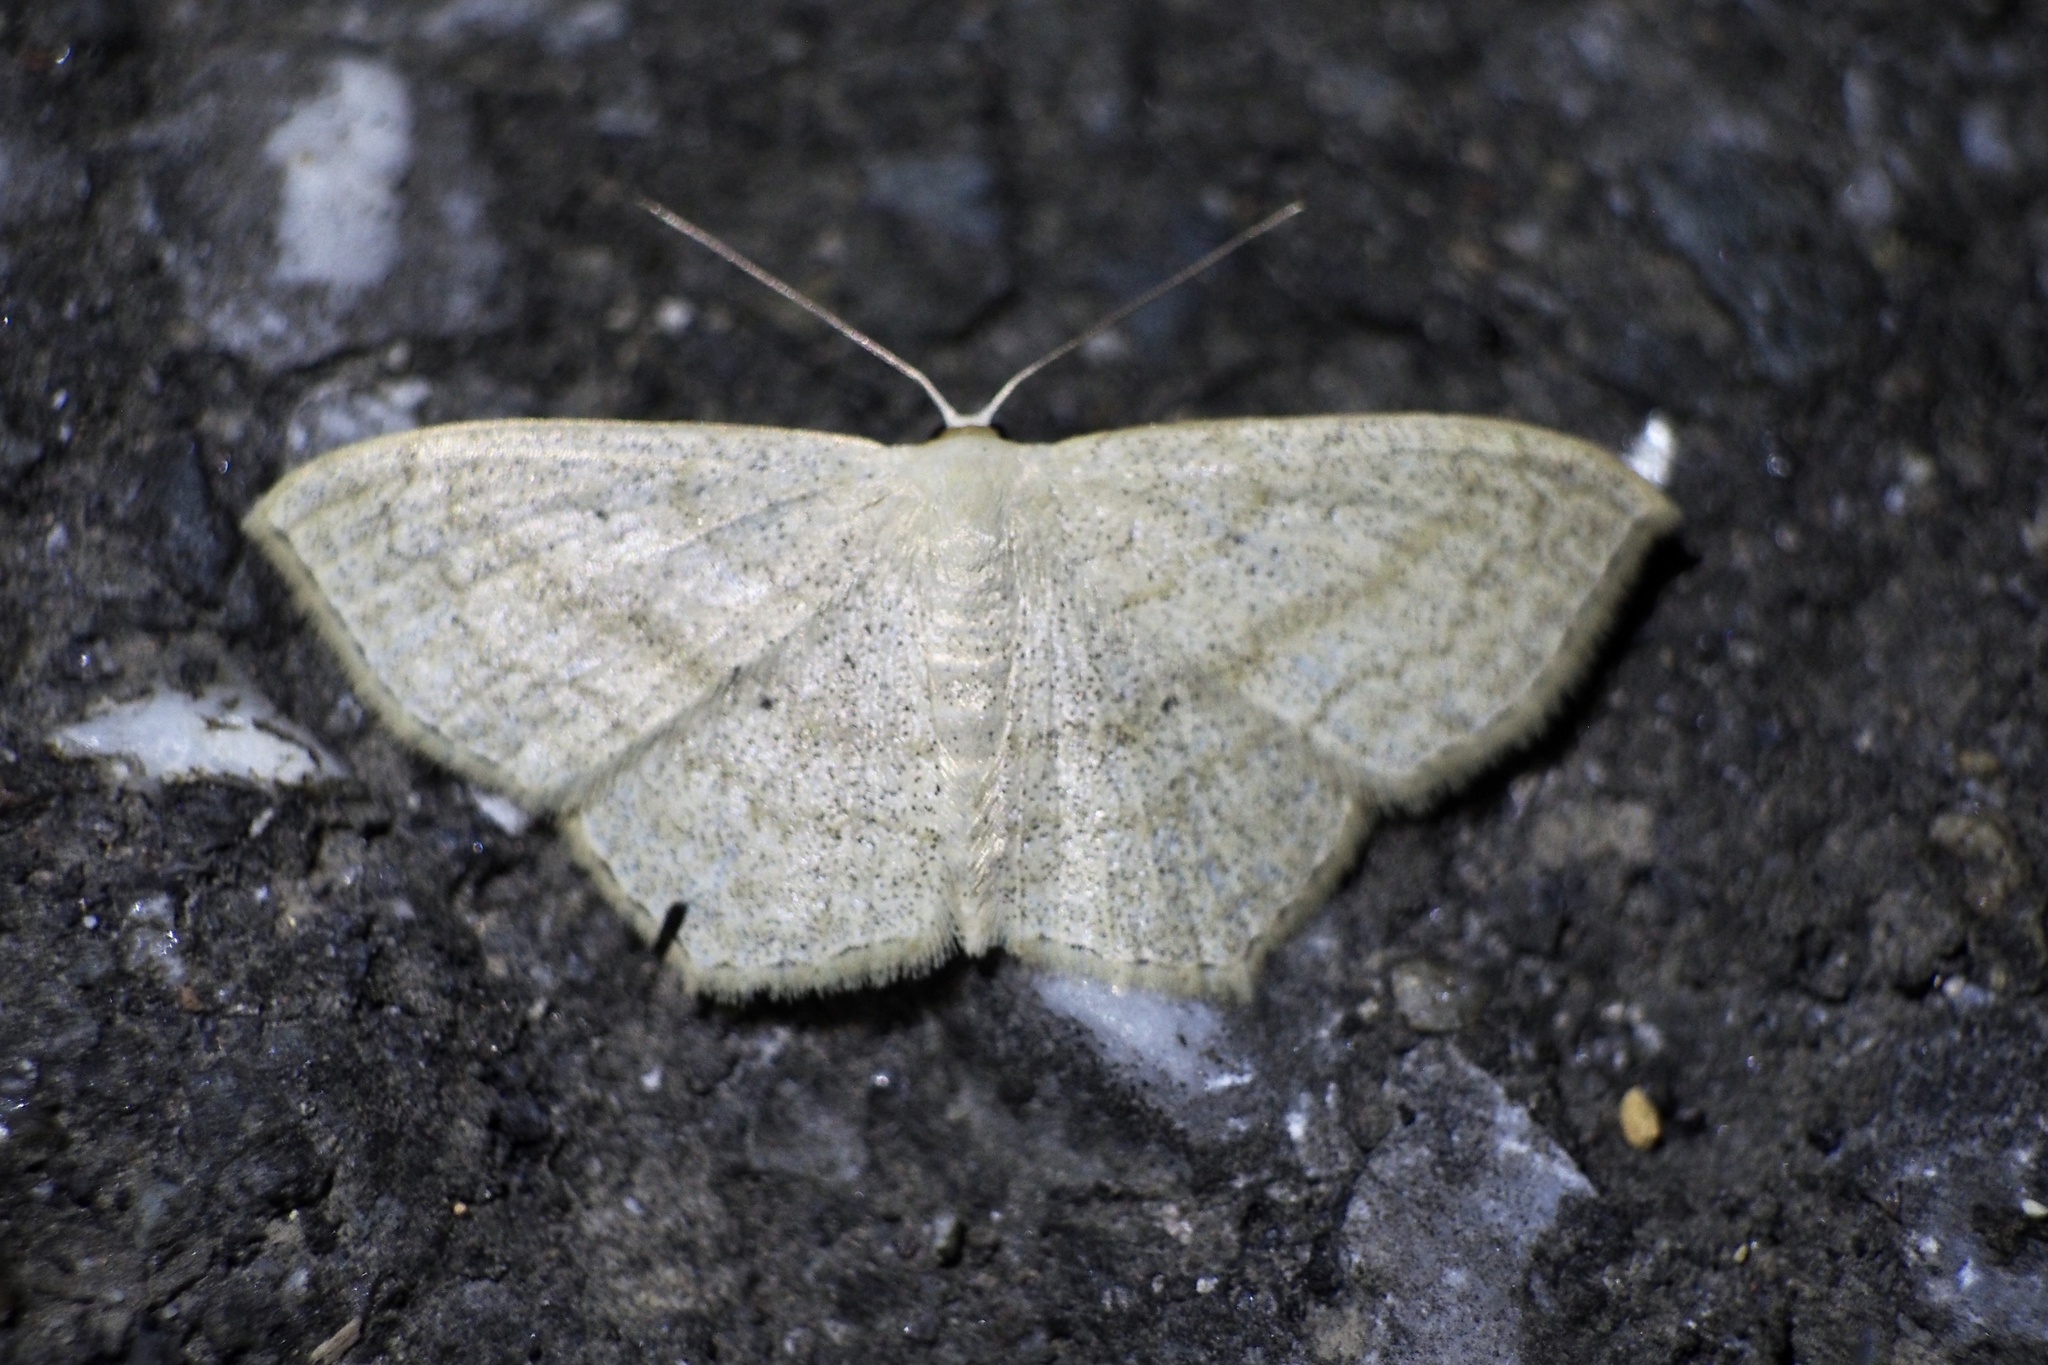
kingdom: Animalia
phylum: Arthropoda
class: Insecta
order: Lepidoptera
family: Geometridae
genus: Scopula
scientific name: Scopula nigropunctata
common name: Sub-angled wave
